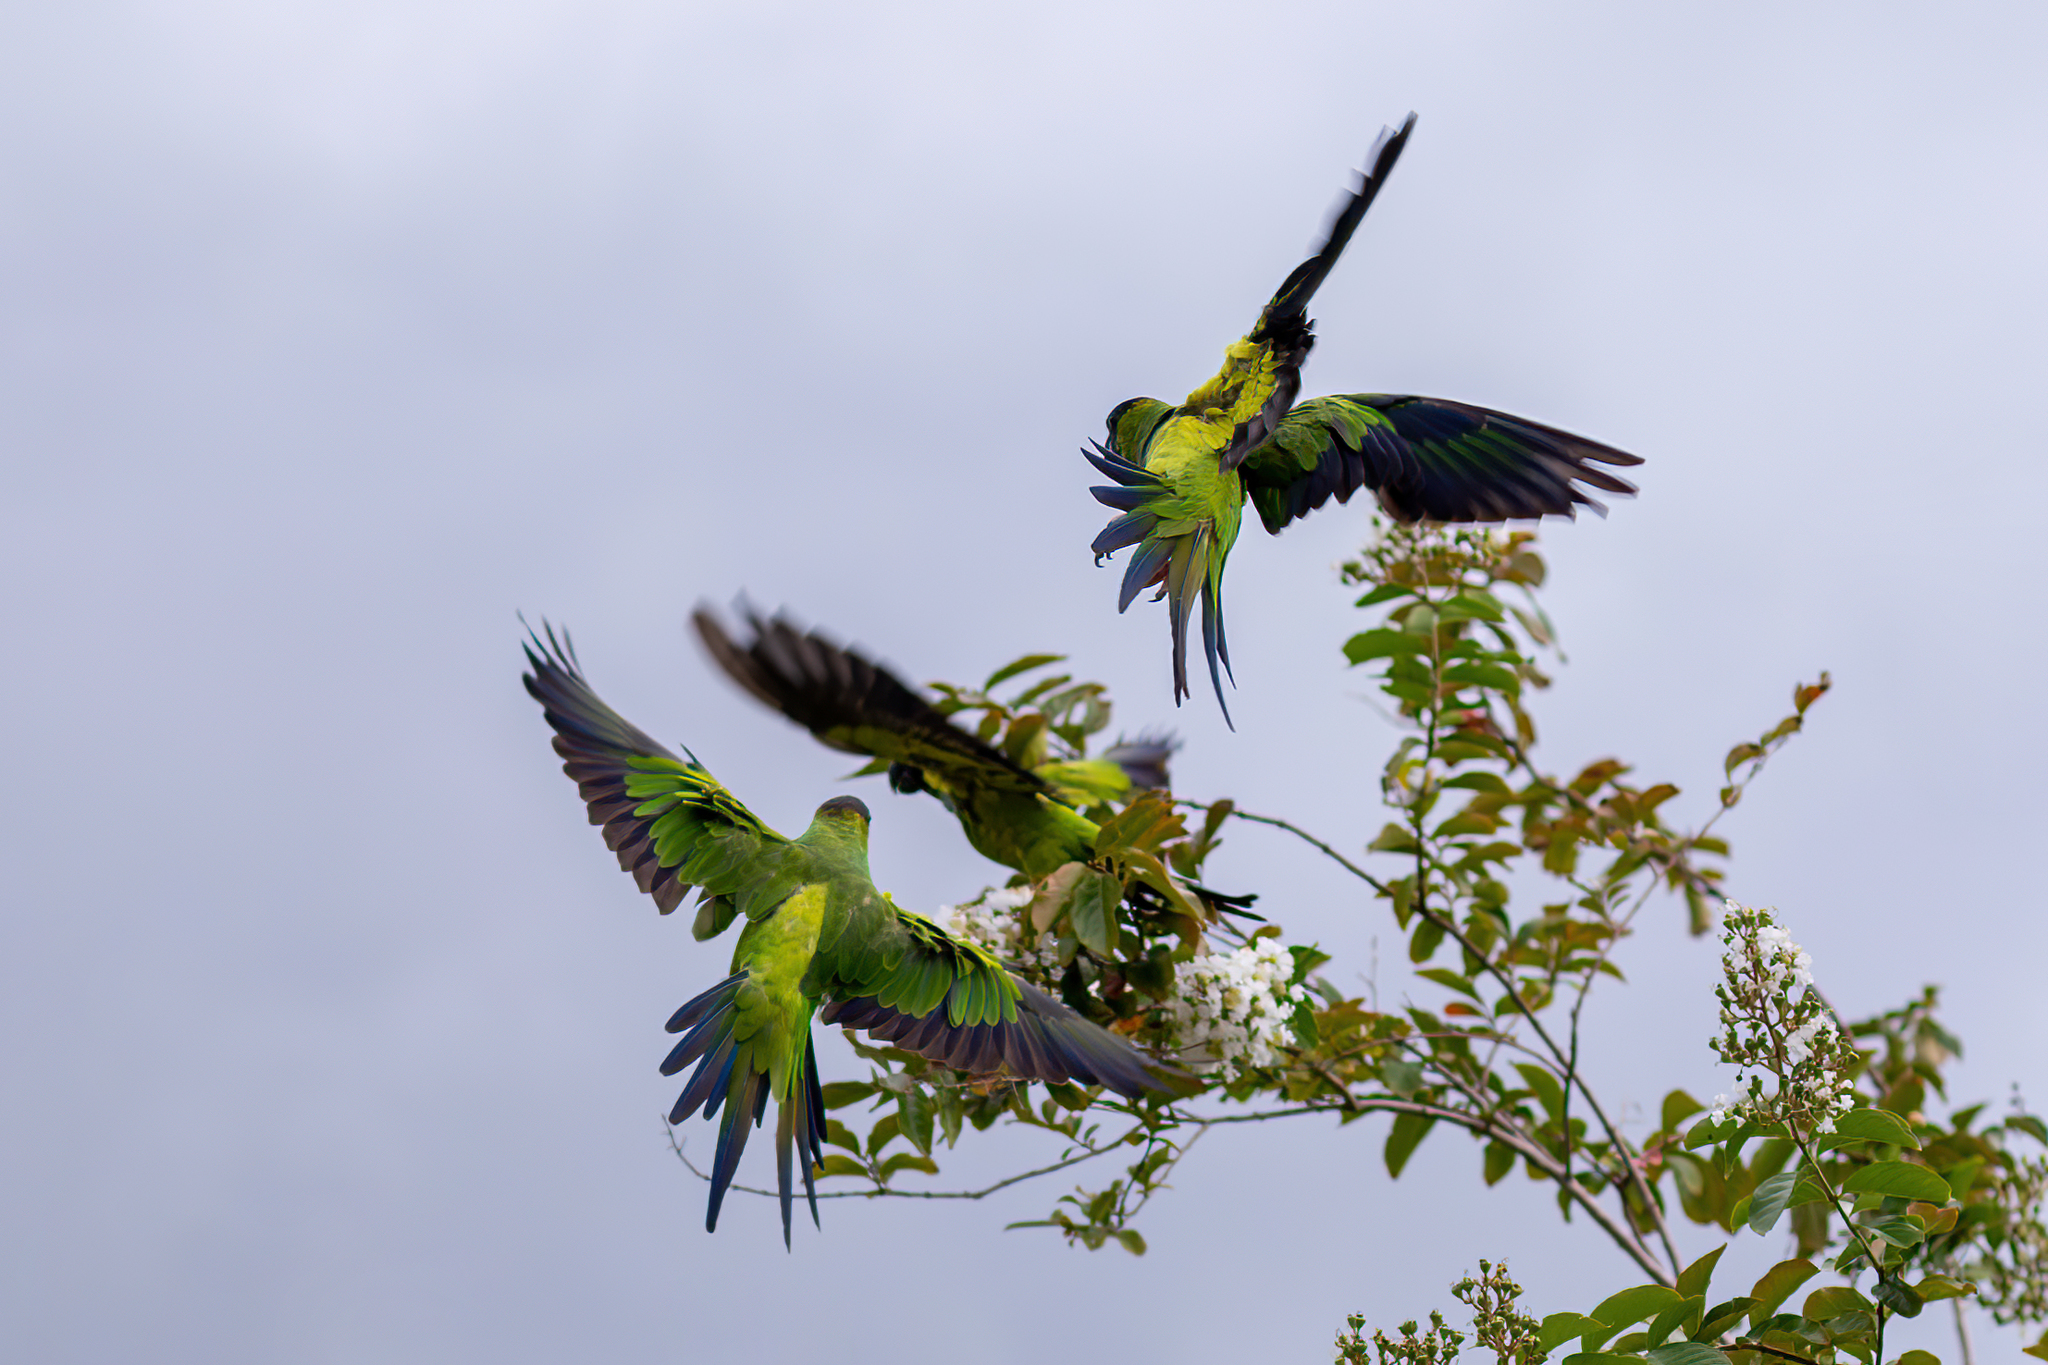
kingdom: Animalia
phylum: Chordata
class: Aves
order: Psittaciformes
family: Psittacidae
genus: Nandayus
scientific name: Nandayus nenday
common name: Nanday parakeet
